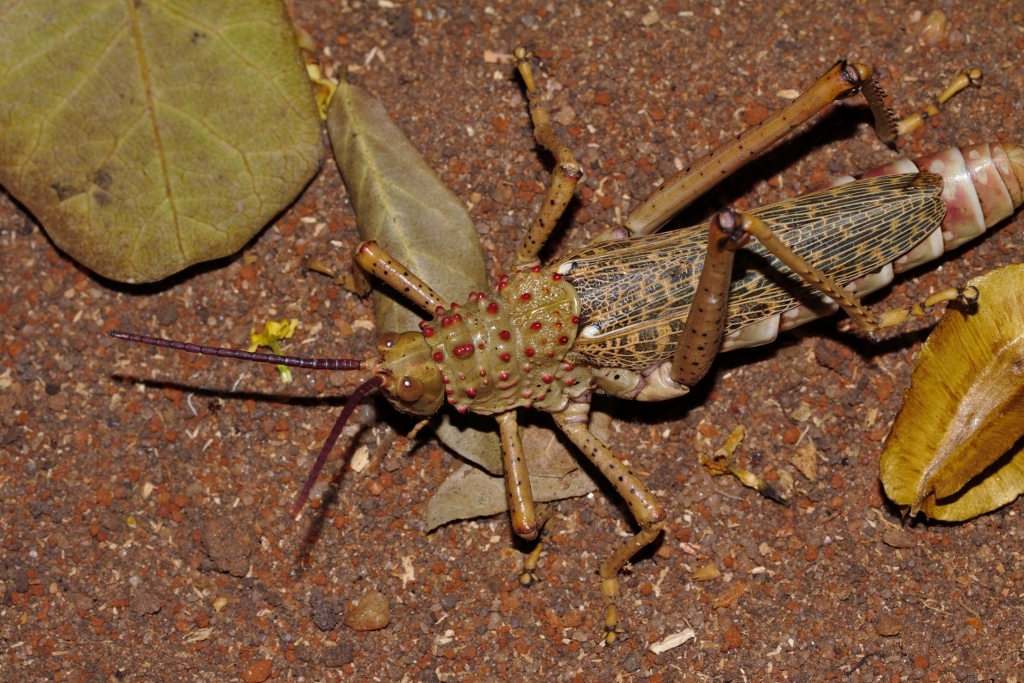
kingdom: Animalia
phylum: Arthropoda
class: Insecta
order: Orthoptera
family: Pyrgomorphidae
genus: Phymateus
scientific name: Phymateus baccatus
